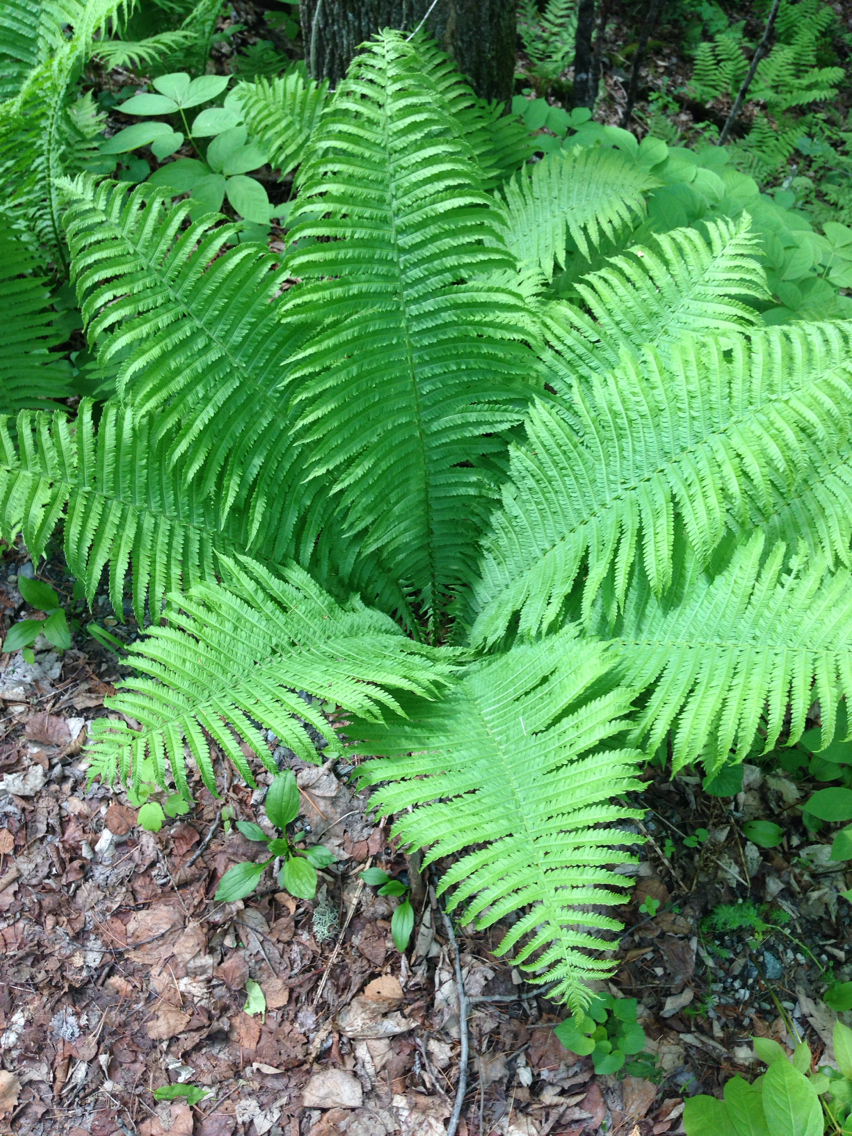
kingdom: Plantae
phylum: Tracheophyta
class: Polypodiopsida
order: Polypodiales
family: Onocleaceae
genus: Matteuccia
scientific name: Matteuccia struthiopteris
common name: Ostrich fern
